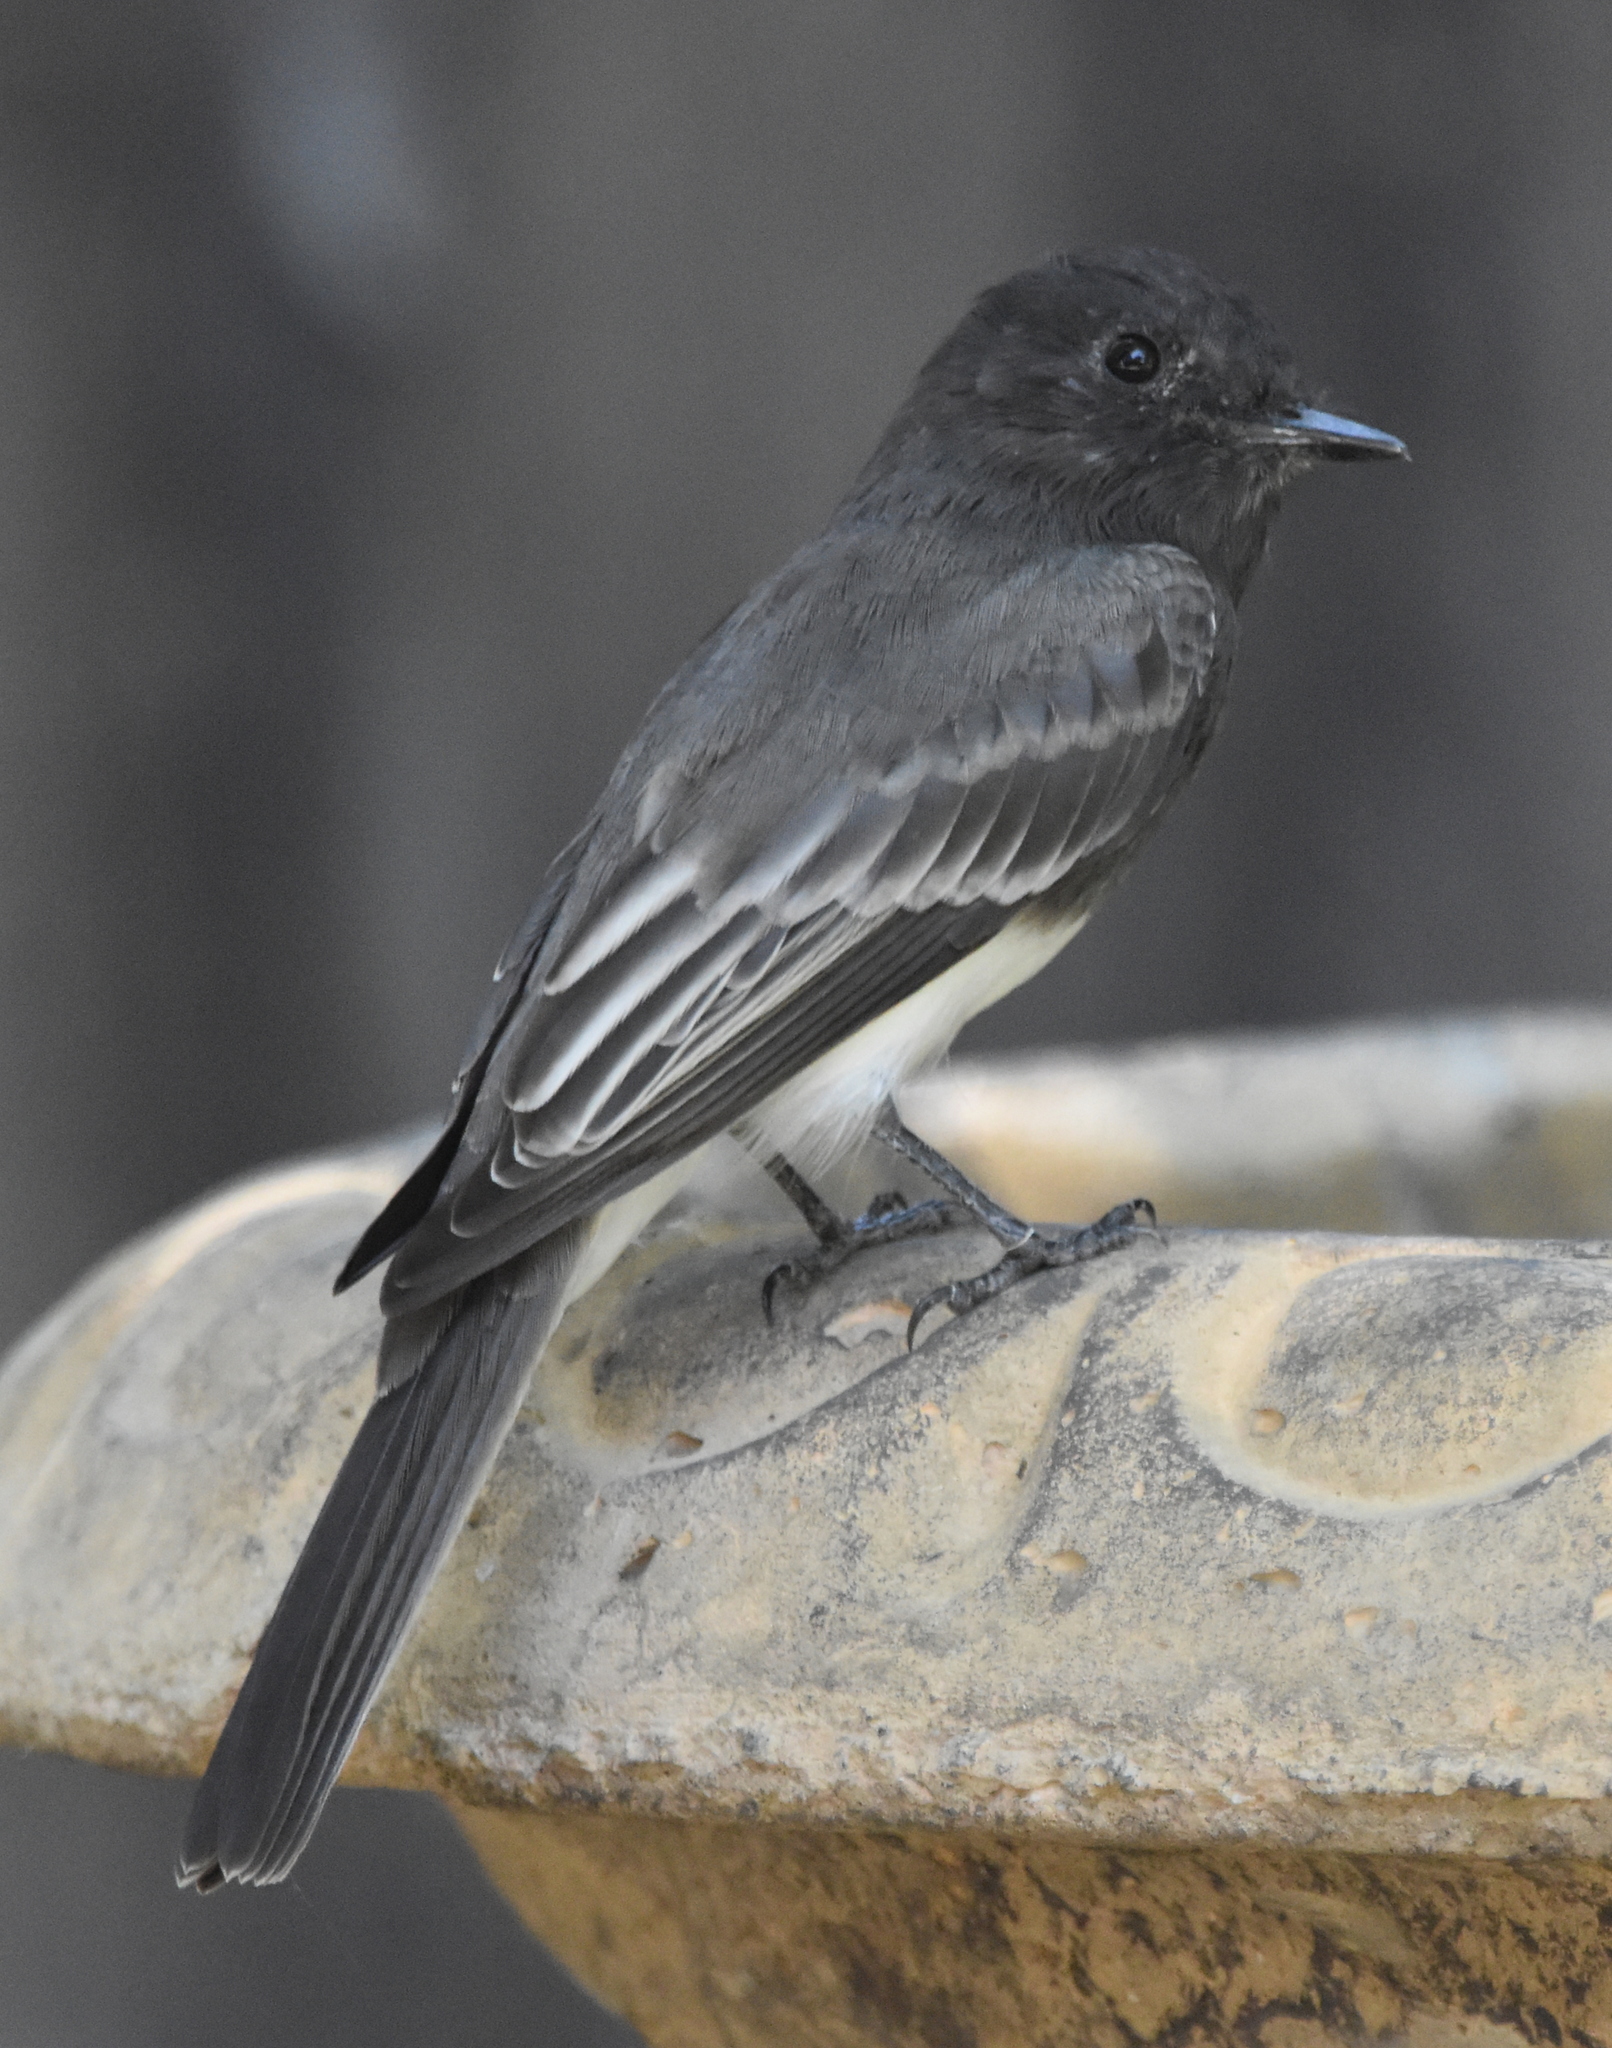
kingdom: Animalia
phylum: Chordata
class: Aves
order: Passeriformes
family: Tyrannidae
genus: Sayornis
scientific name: Sayornis nigricans
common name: Black phoebe
